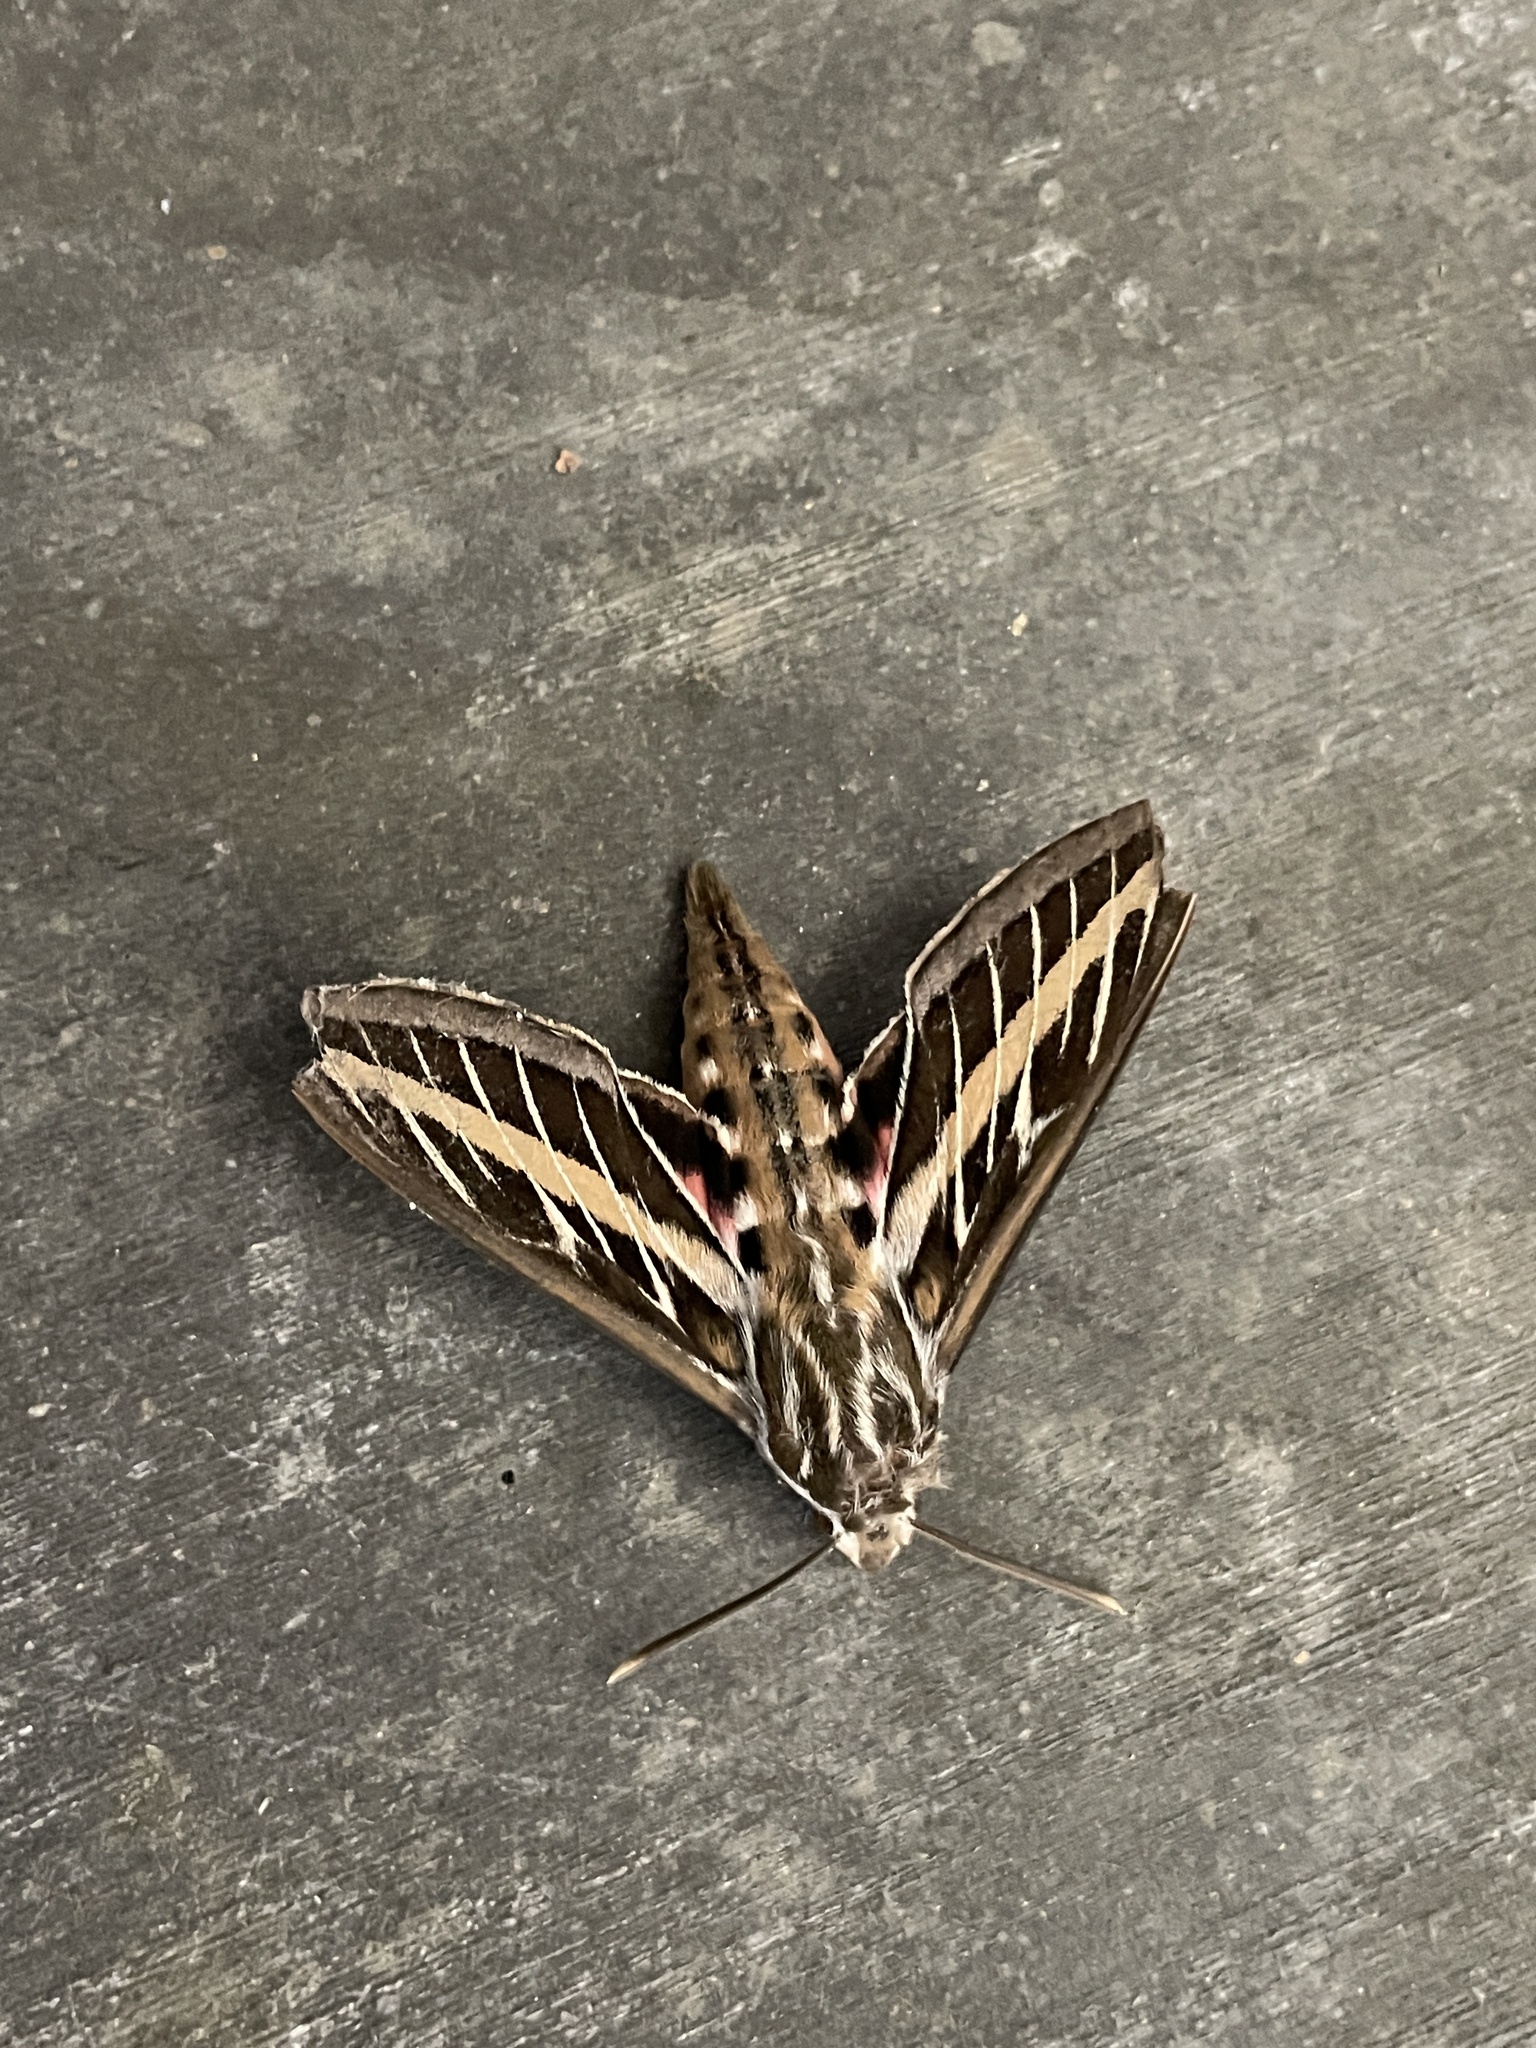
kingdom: Animalia
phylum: Arthropoda
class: Insecta
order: Lepidoptera
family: Sphingidae
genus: Hyles
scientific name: Hyles lineata
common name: White-lined sphinx
